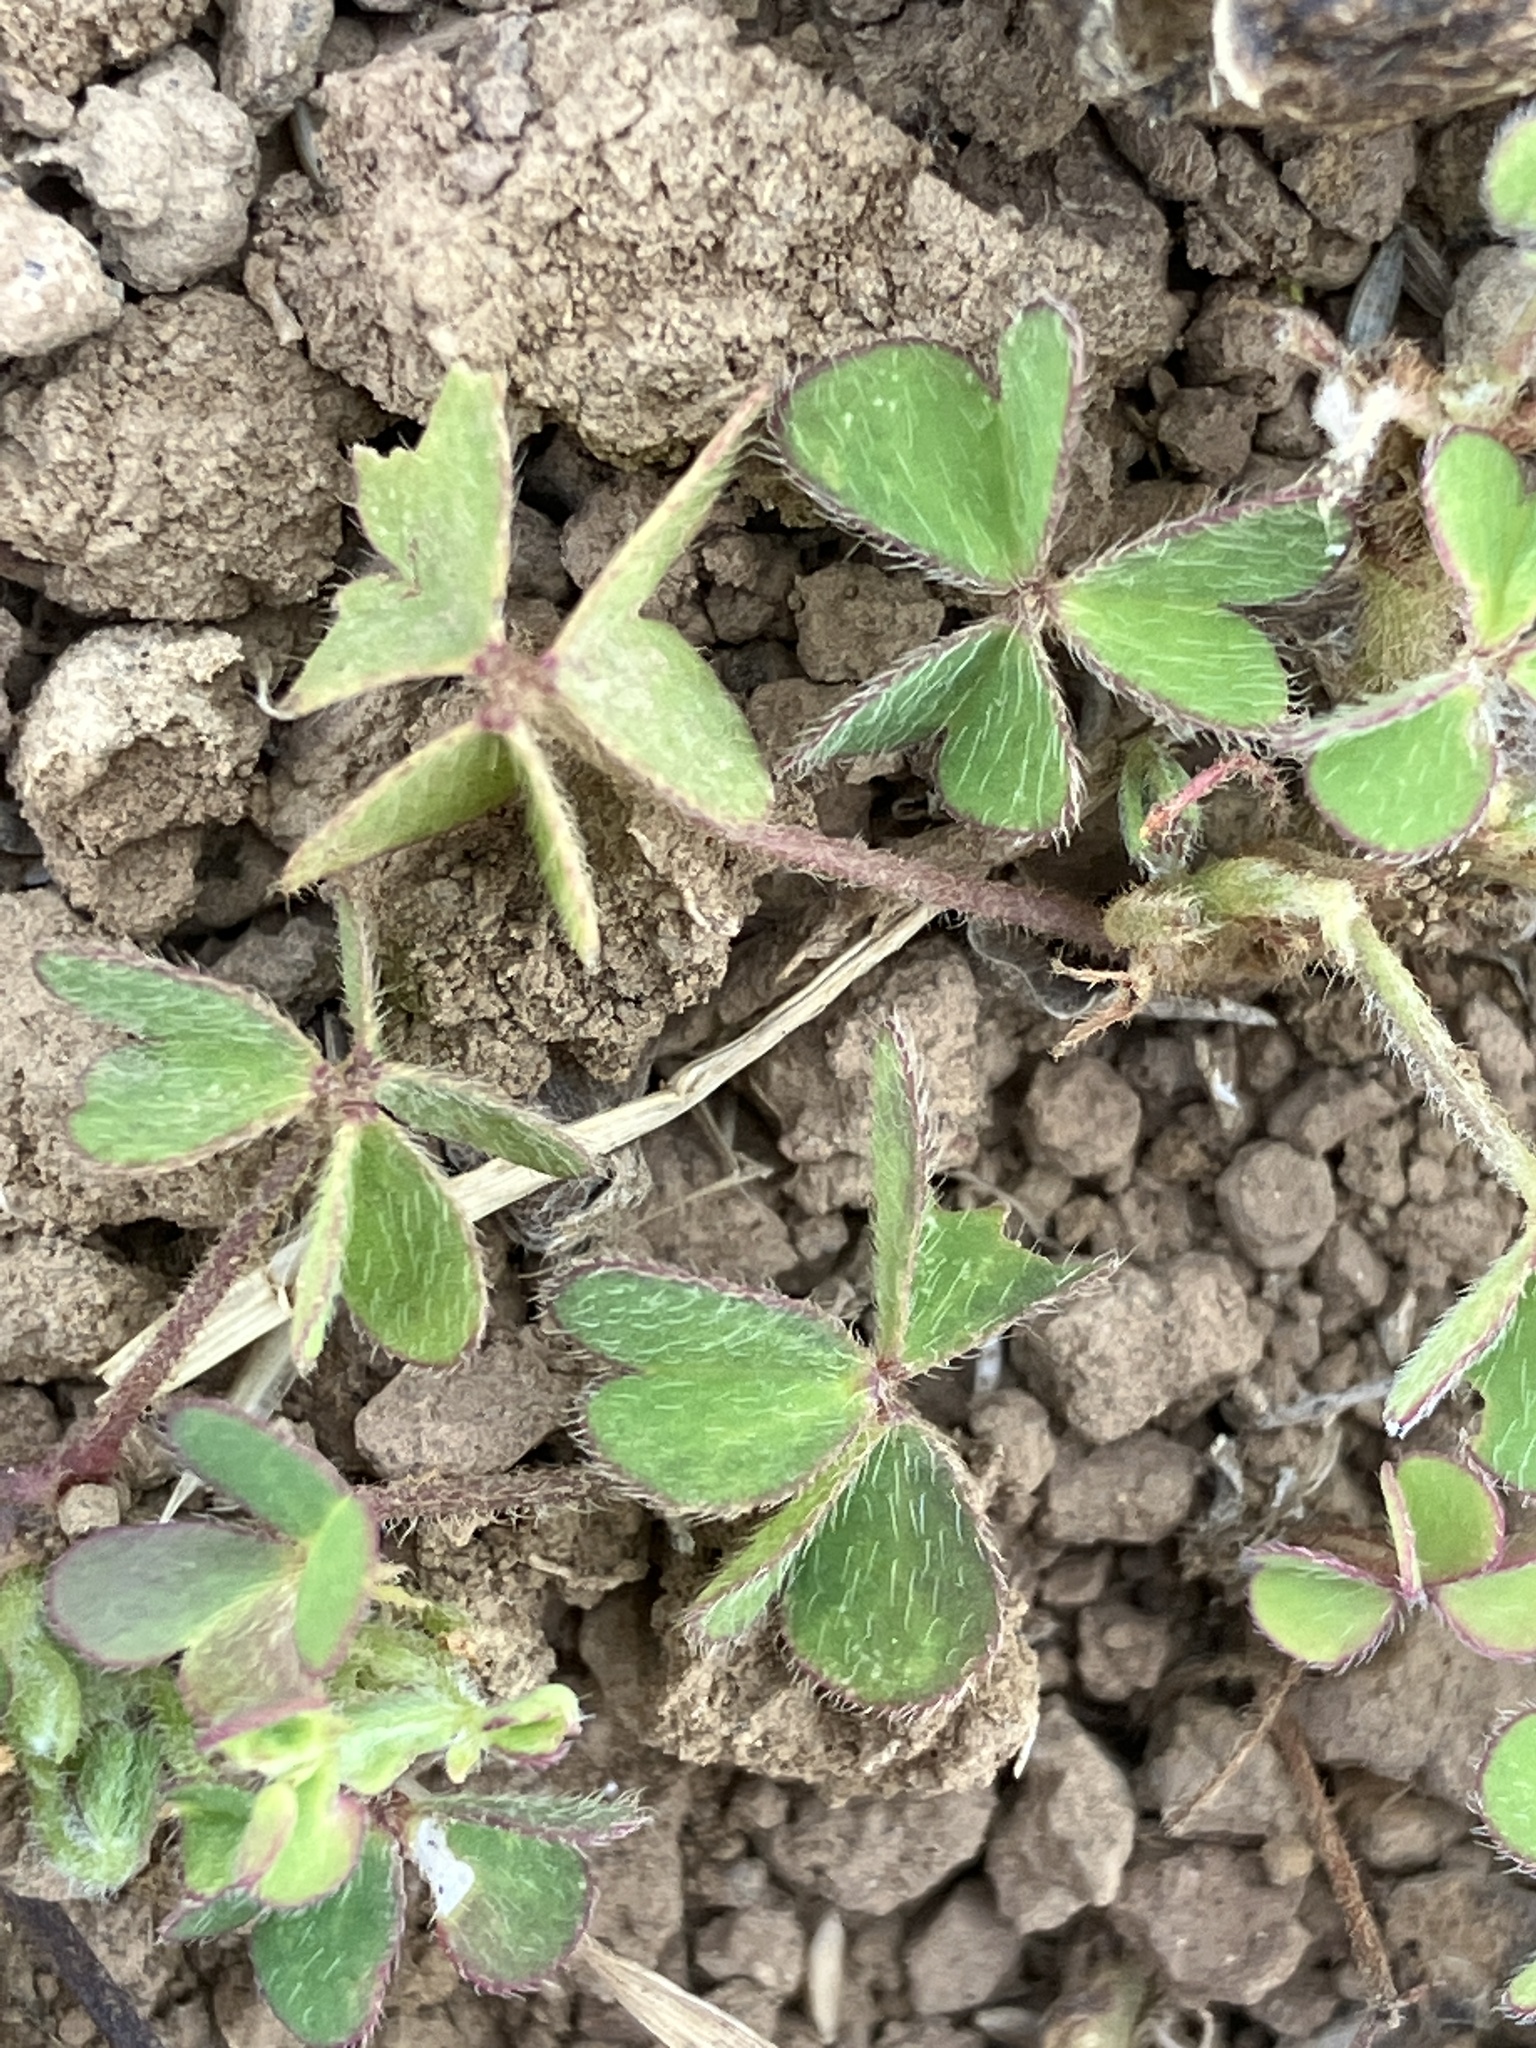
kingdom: Plantae
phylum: Tracheophyta
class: Magnoliopsida
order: Oxalidales
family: Oxalidaceae
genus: Oxalis
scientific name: Oxalis corniculata
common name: Procumbent yellow-sorrel
